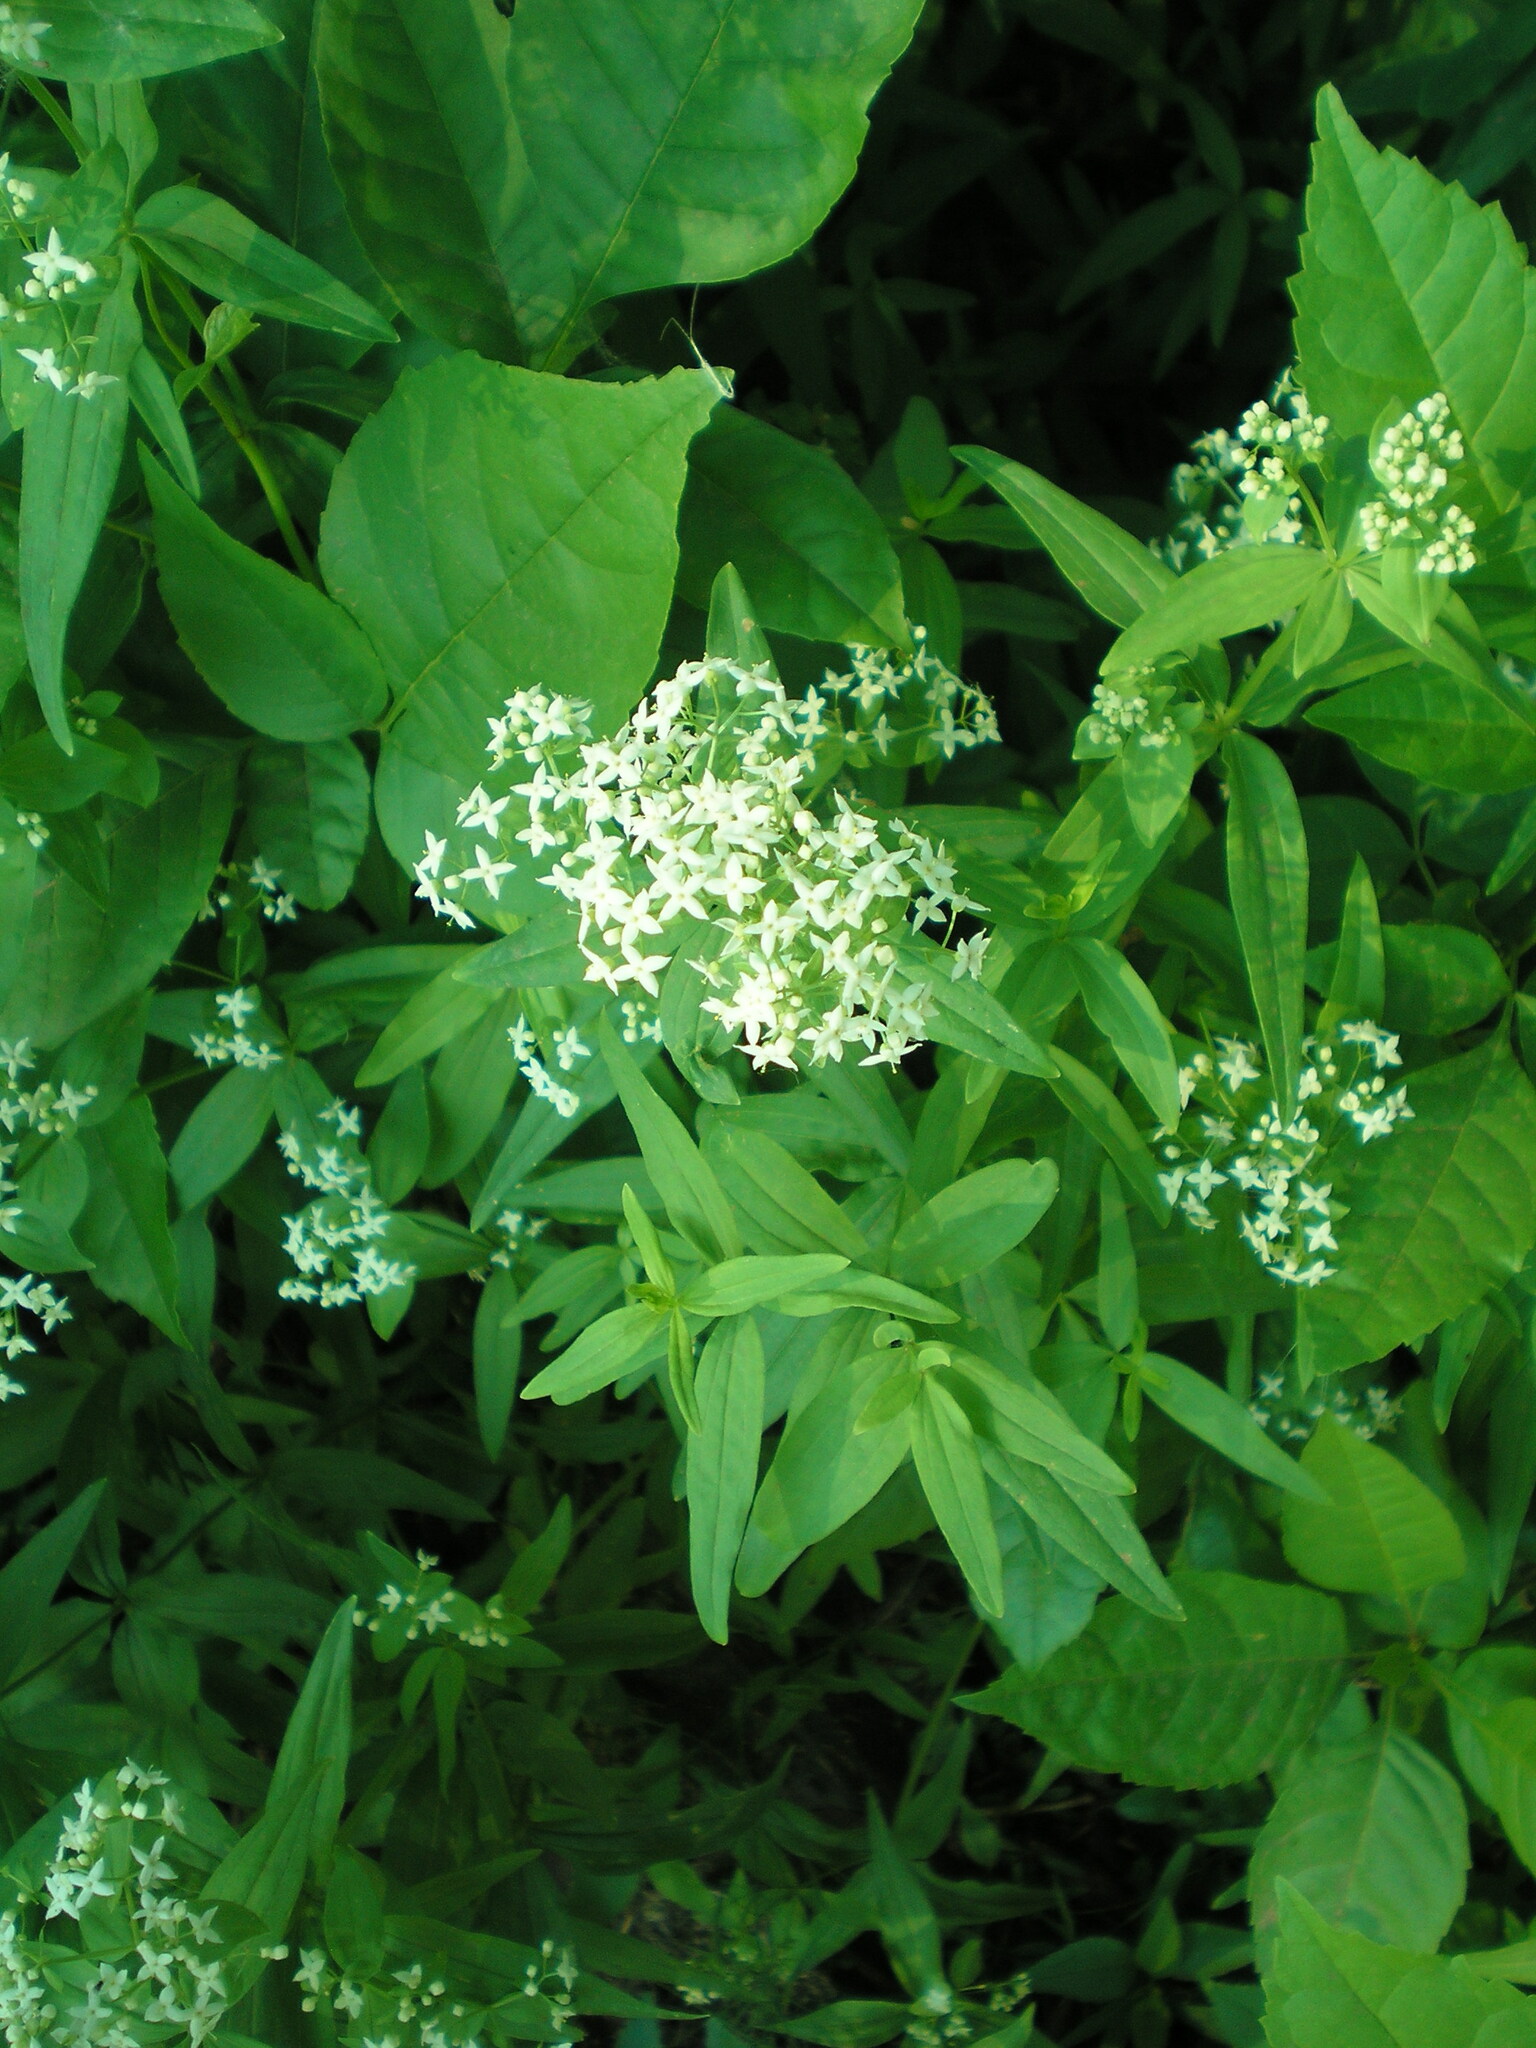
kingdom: Plantae
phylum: Tracheophyta
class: Magnoliopsida
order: Gentianales
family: Rubiaceae
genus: Galium
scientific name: Galium rubioides
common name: European bedstraw
